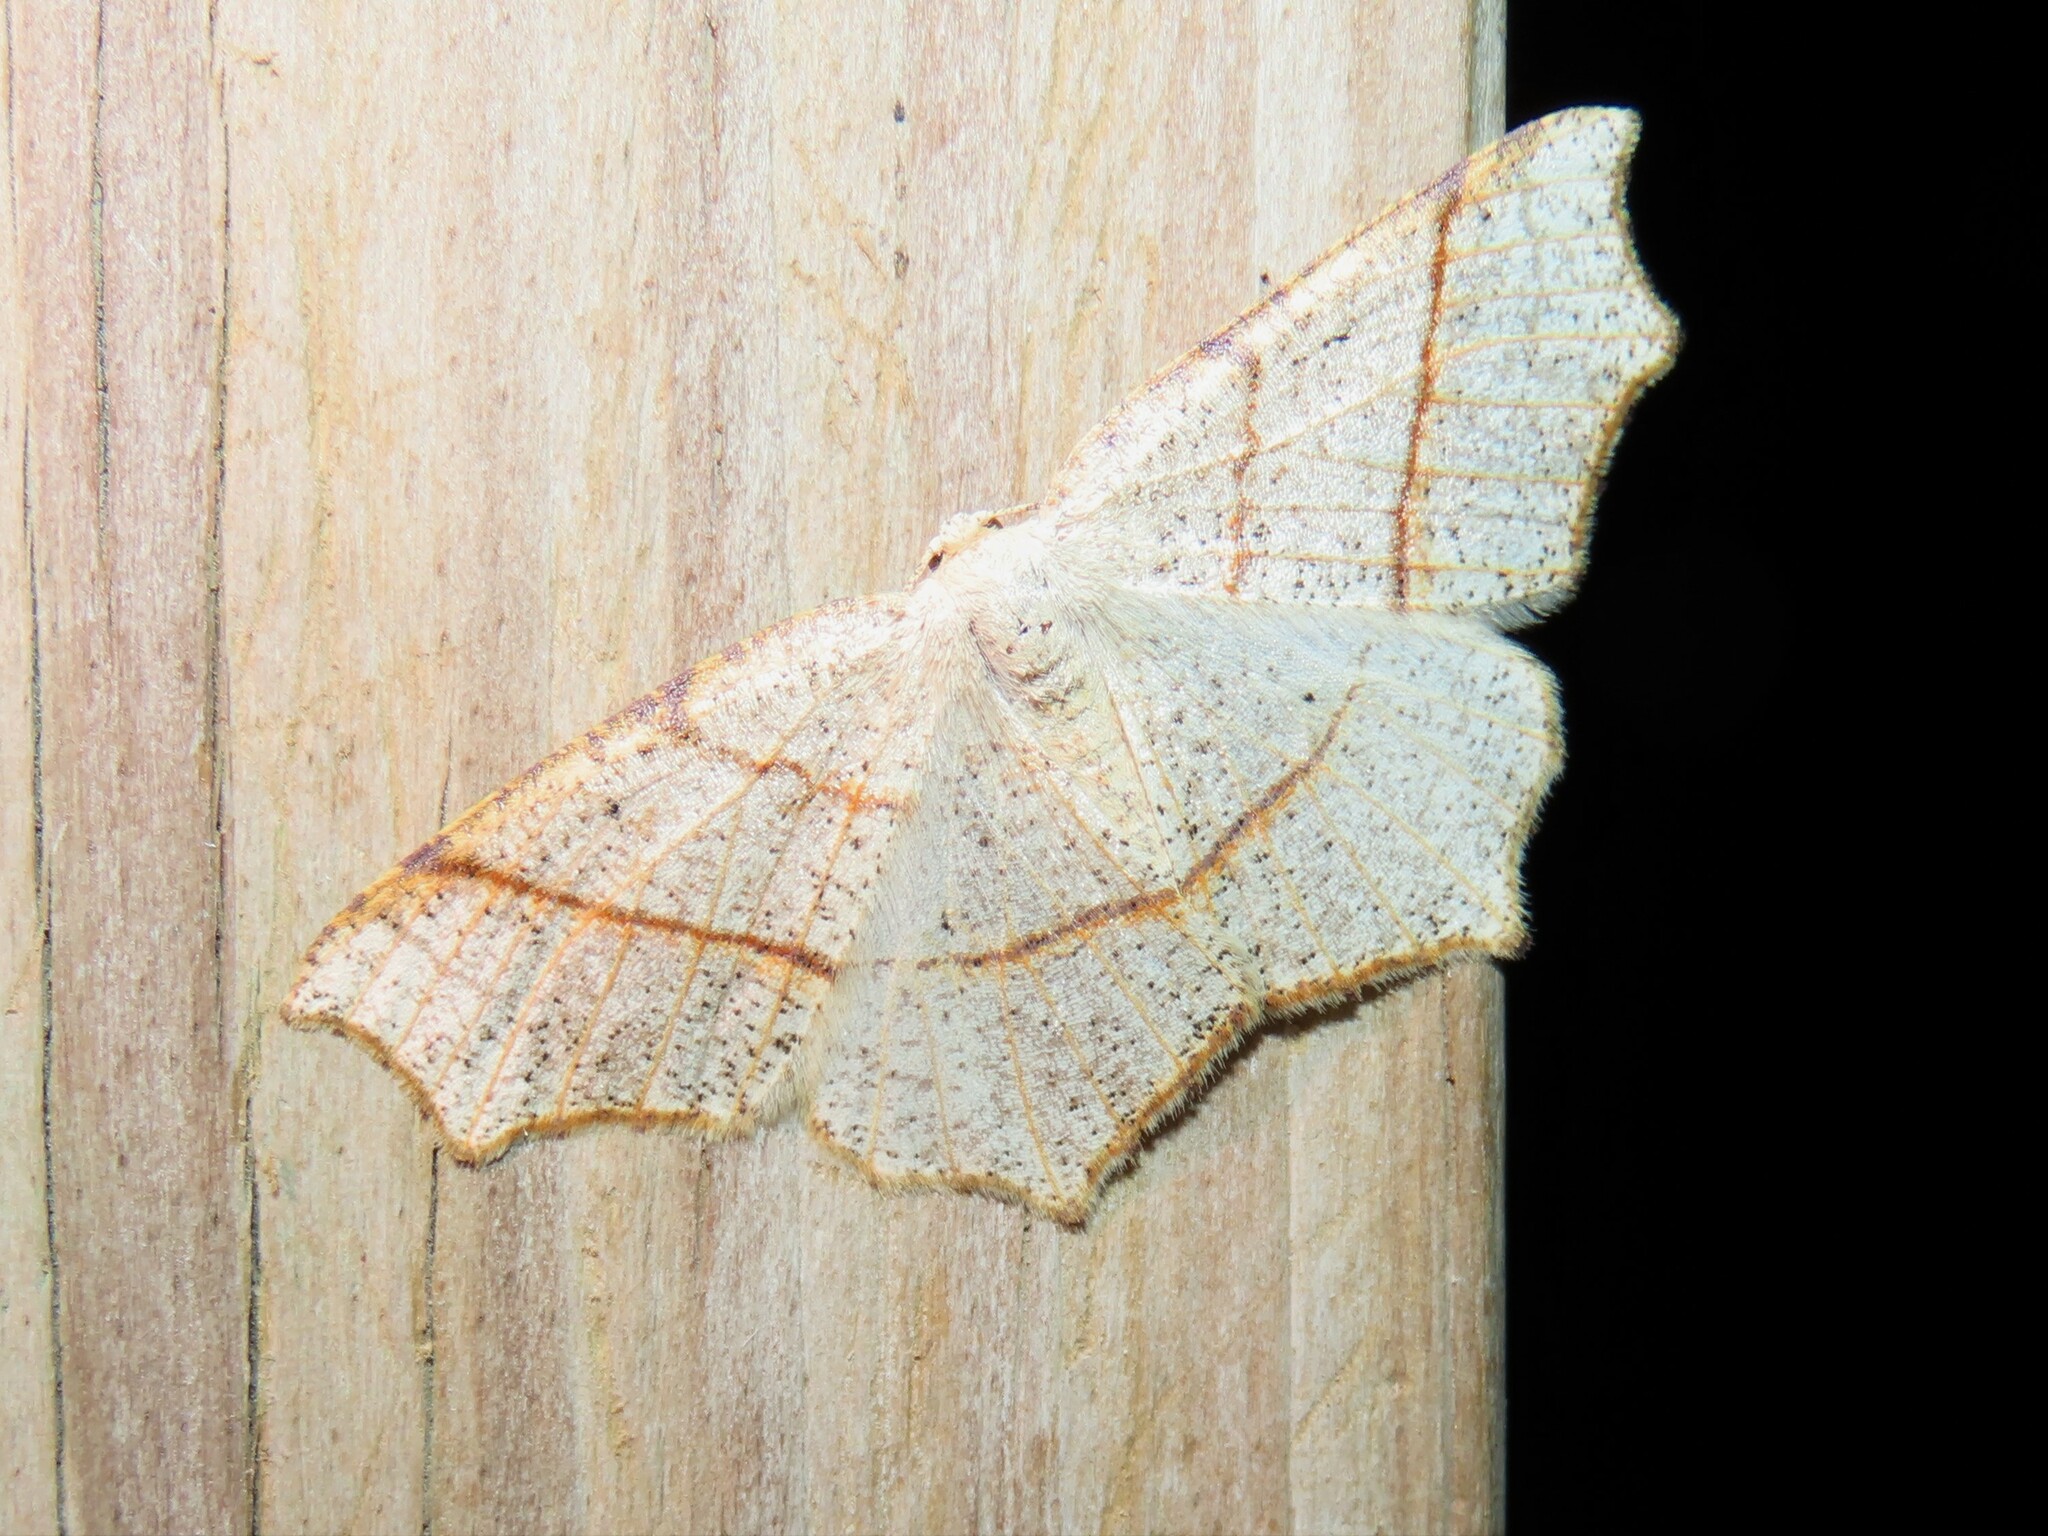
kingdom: Animalia
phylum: Arthropoda
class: Insecta
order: Lepidoptera
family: Geometridae
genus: Besma
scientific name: Besma quercivoraria
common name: Oak besma
